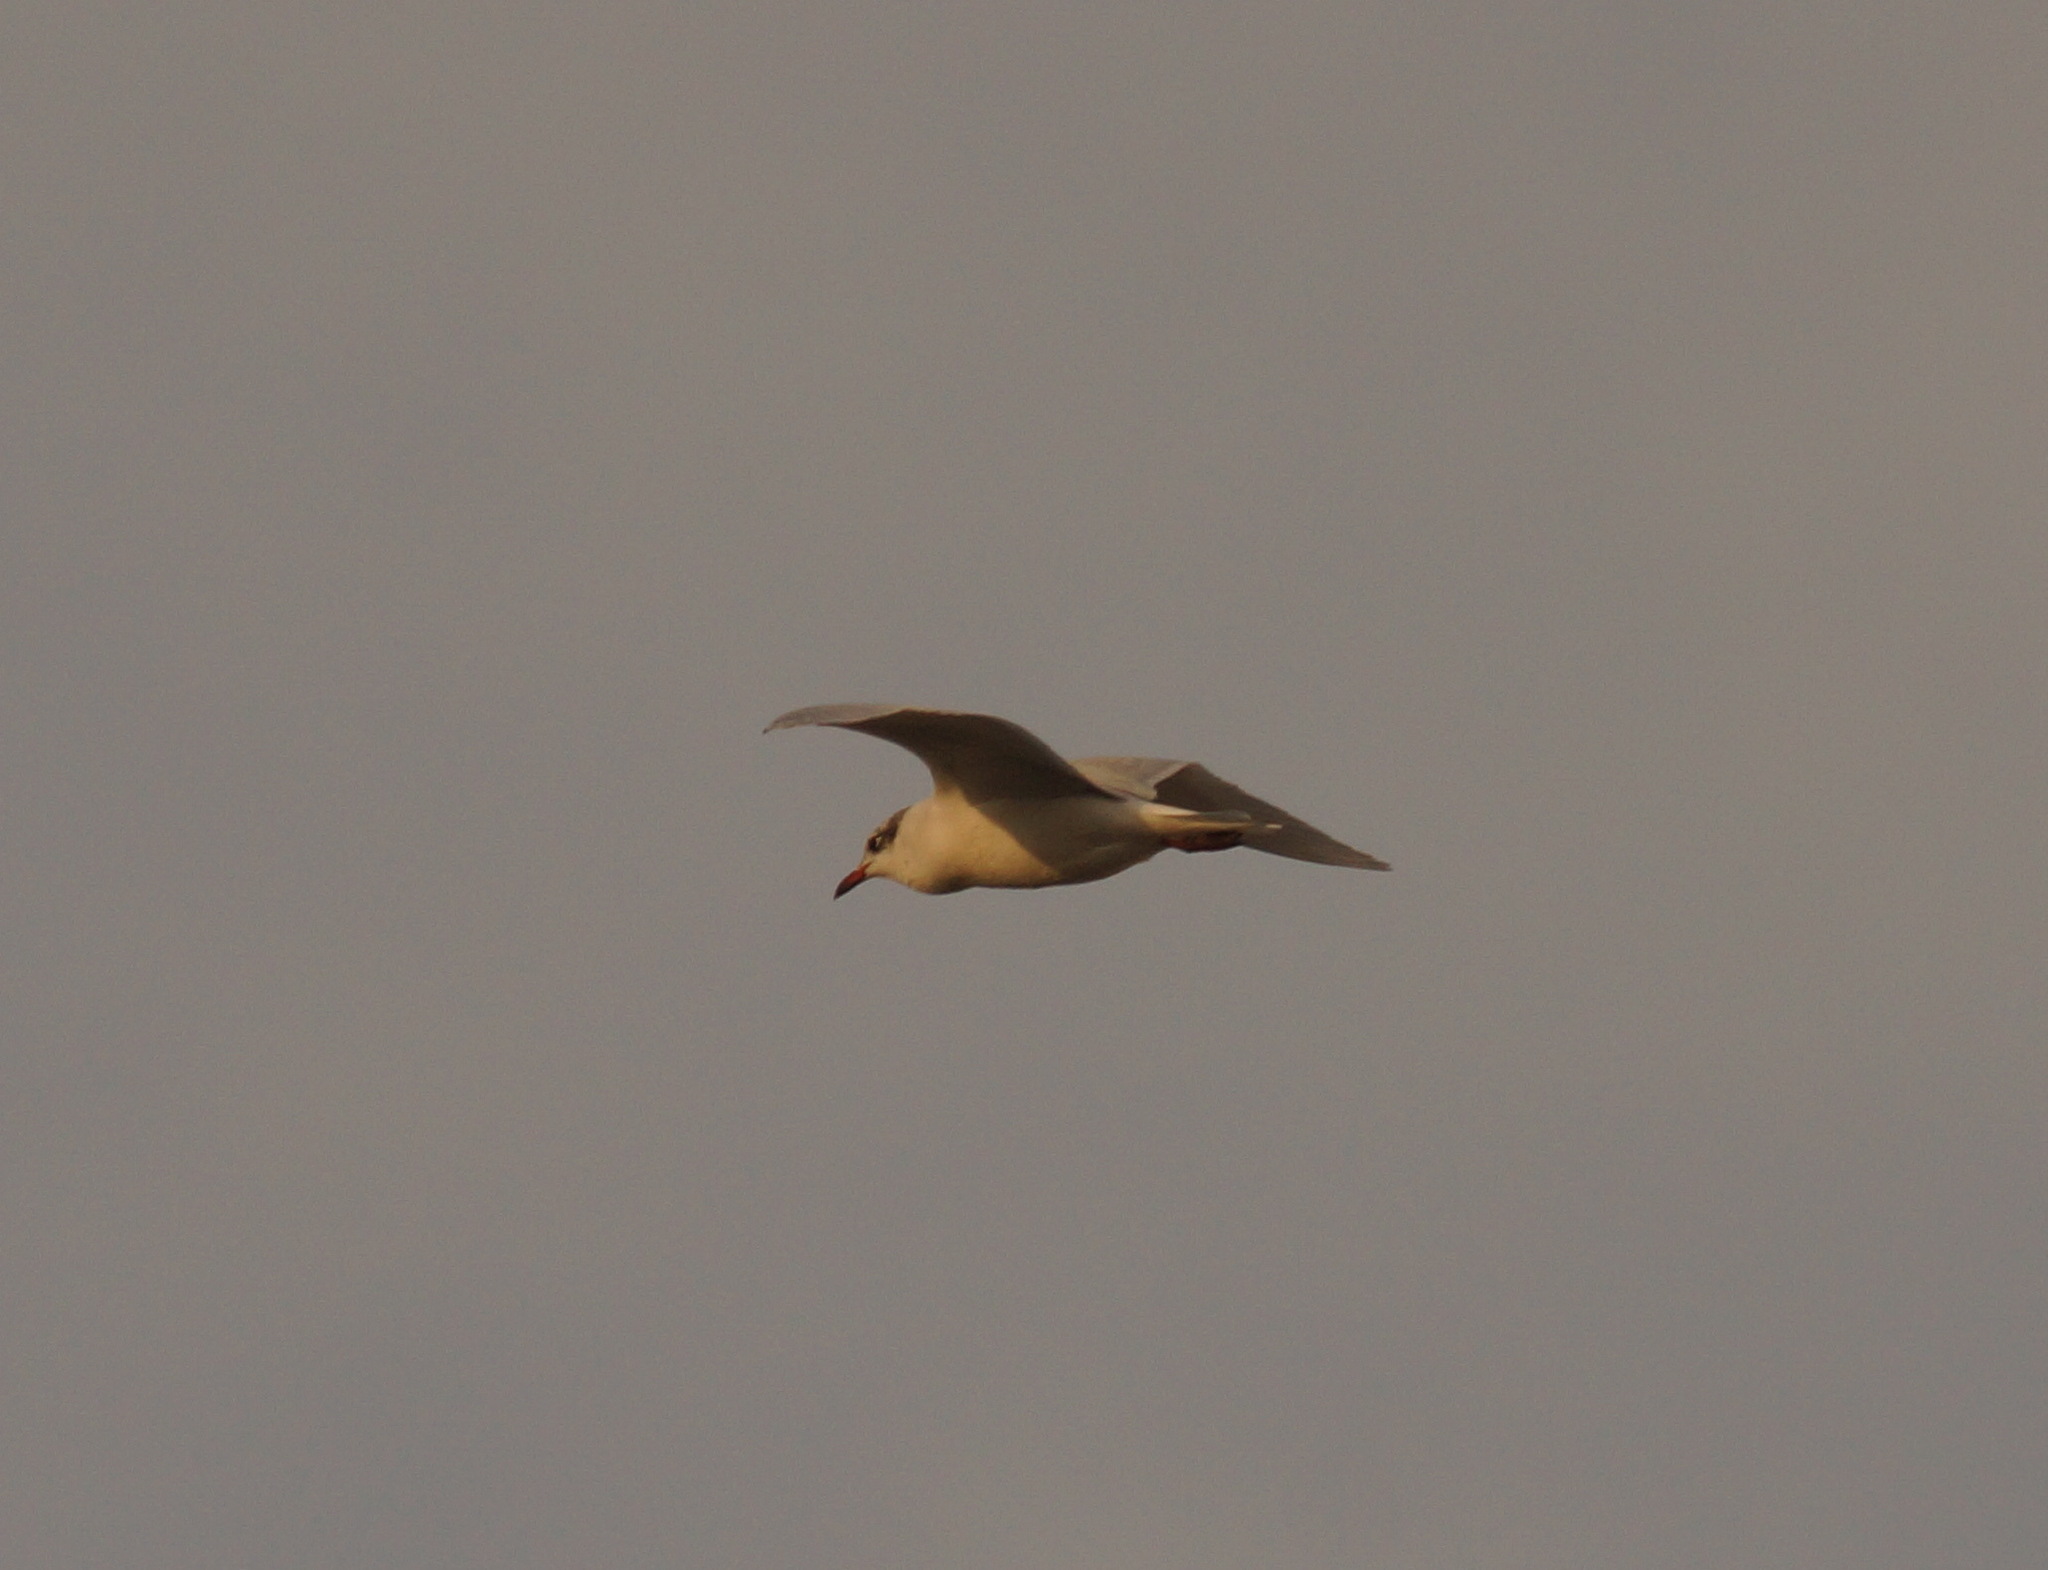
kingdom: Animalia
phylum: Chordata
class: Aves
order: Charadriiformes
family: Laridae
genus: Ichthyaetus
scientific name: Ichthyaetus melanocephalus
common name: Mediterranean gull
